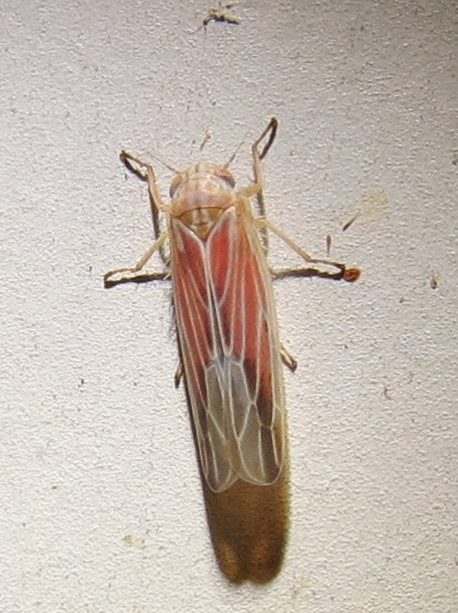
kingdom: Animalia
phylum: Arthropoda
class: Insecta
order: Hemiptera
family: Cicadellidae
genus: Balclutha
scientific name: Balclutha rubrostriata
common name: Red-streaked leafhopper
